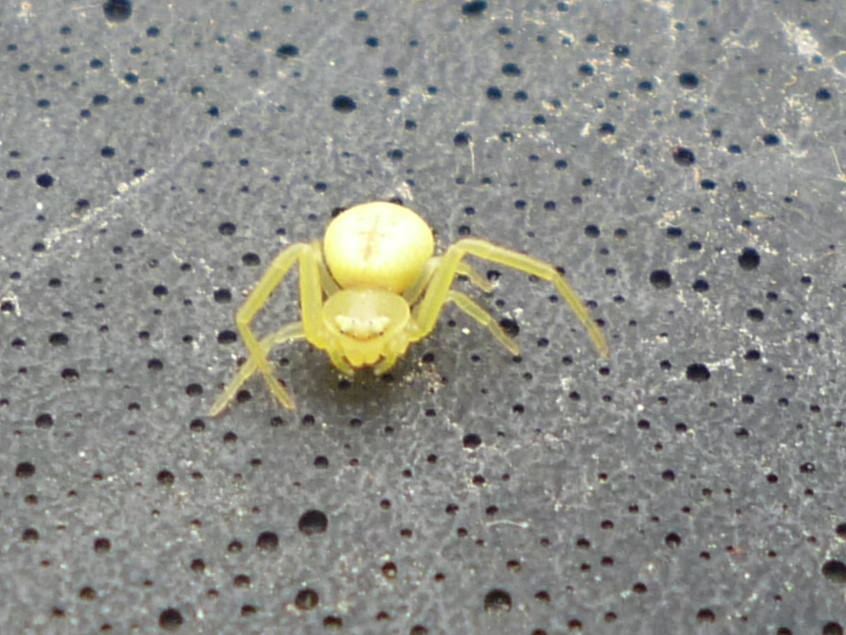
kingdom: Animalia
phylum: Arthropoda
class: Arachnida
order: Araneae
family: Thomisidae
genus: Misumessus
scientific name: Misumessus oblongus
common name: American green crab spider
